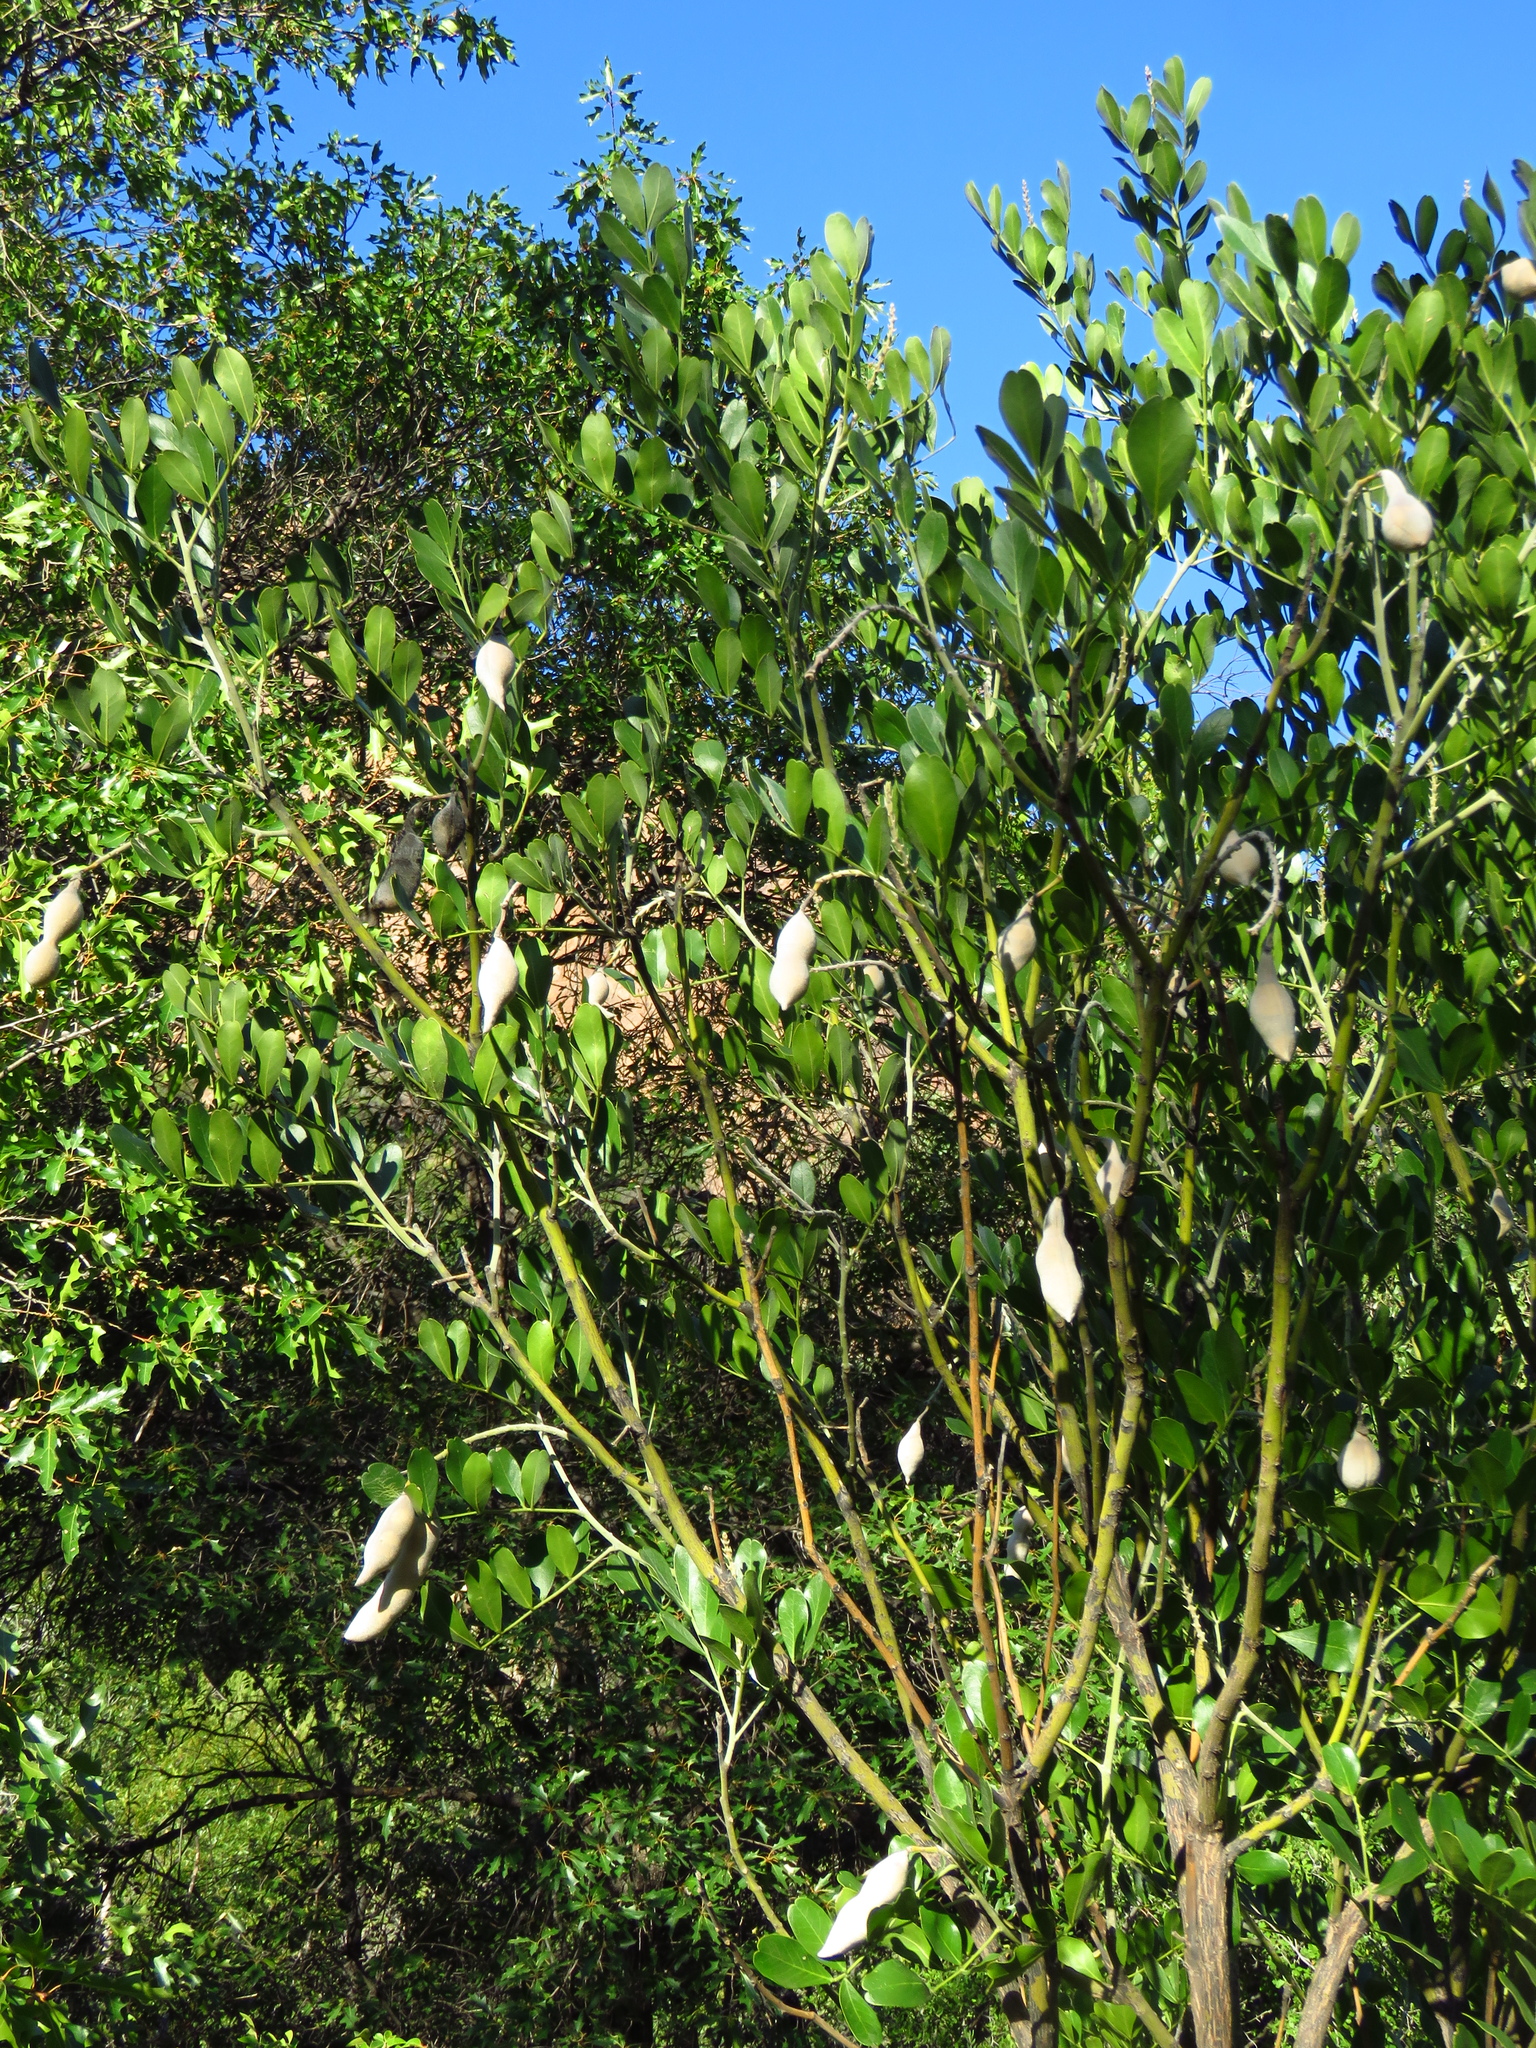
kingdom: Plantae
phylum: Tracheophyta
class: Magnoliopsida
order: Fabales
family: Fabaceae
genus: Dermatophyllum
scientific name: Dermatophyllum secundiflorum
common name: Texas-mountain-laurel
